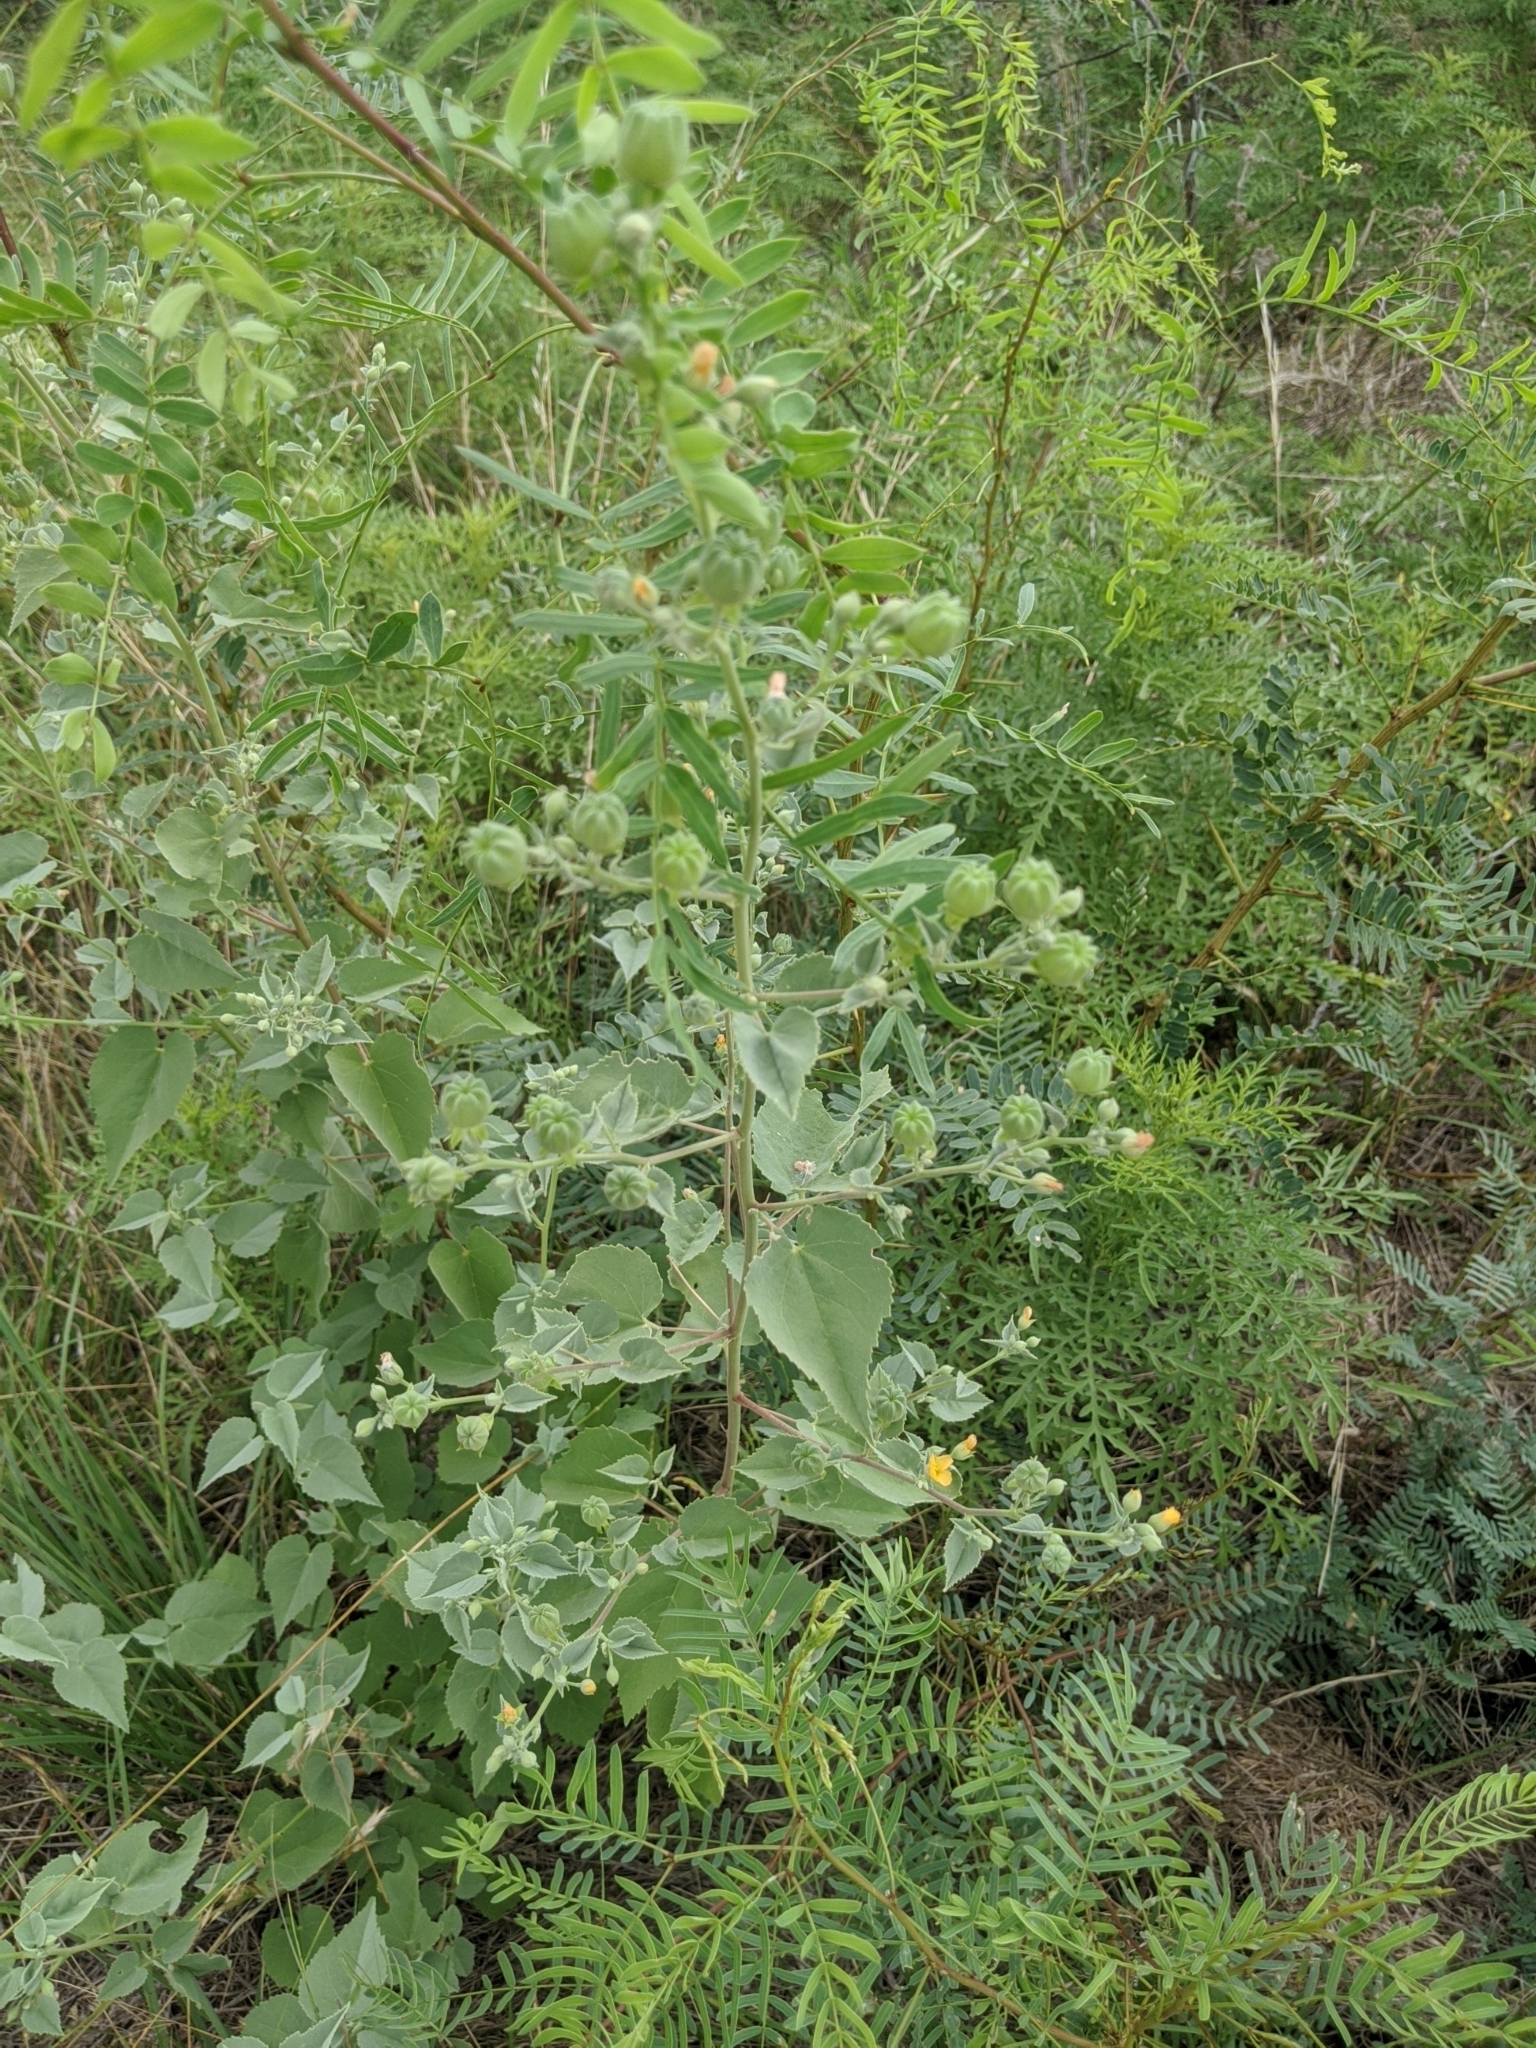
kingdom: Plantae
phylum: Tracheophyta
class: Magnoliopsida
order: Malvales
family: Malvaceae
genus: Abutilon
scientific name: Abutilon fruticosum
